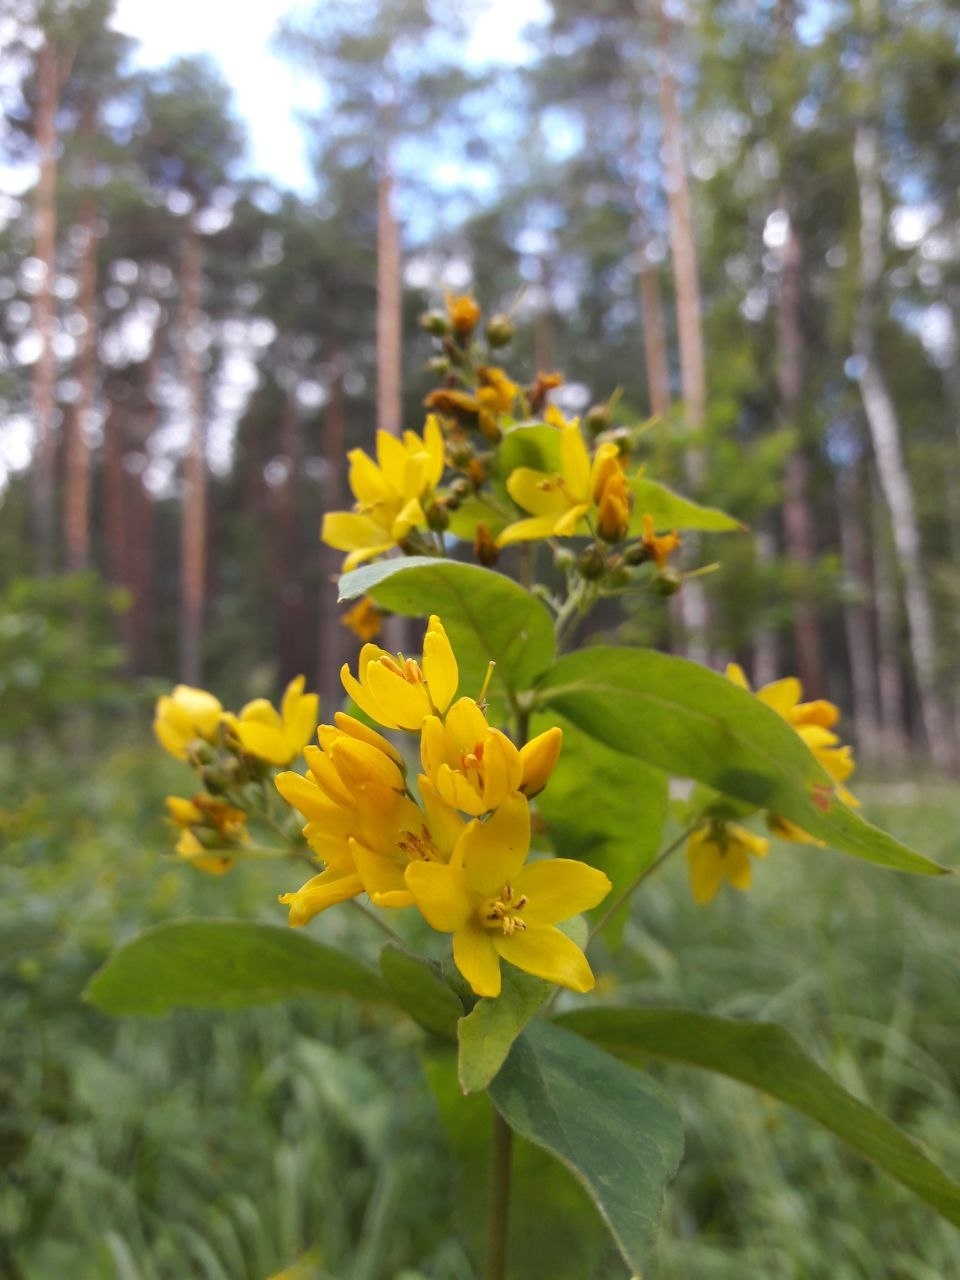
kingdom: Plantae
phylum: Tracheophyta
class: Magnoliopsida
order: Ericales
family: Primulaceae
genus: Lysimachia
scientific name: Lysimachia vulgaris
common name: Yellow loosestrife
